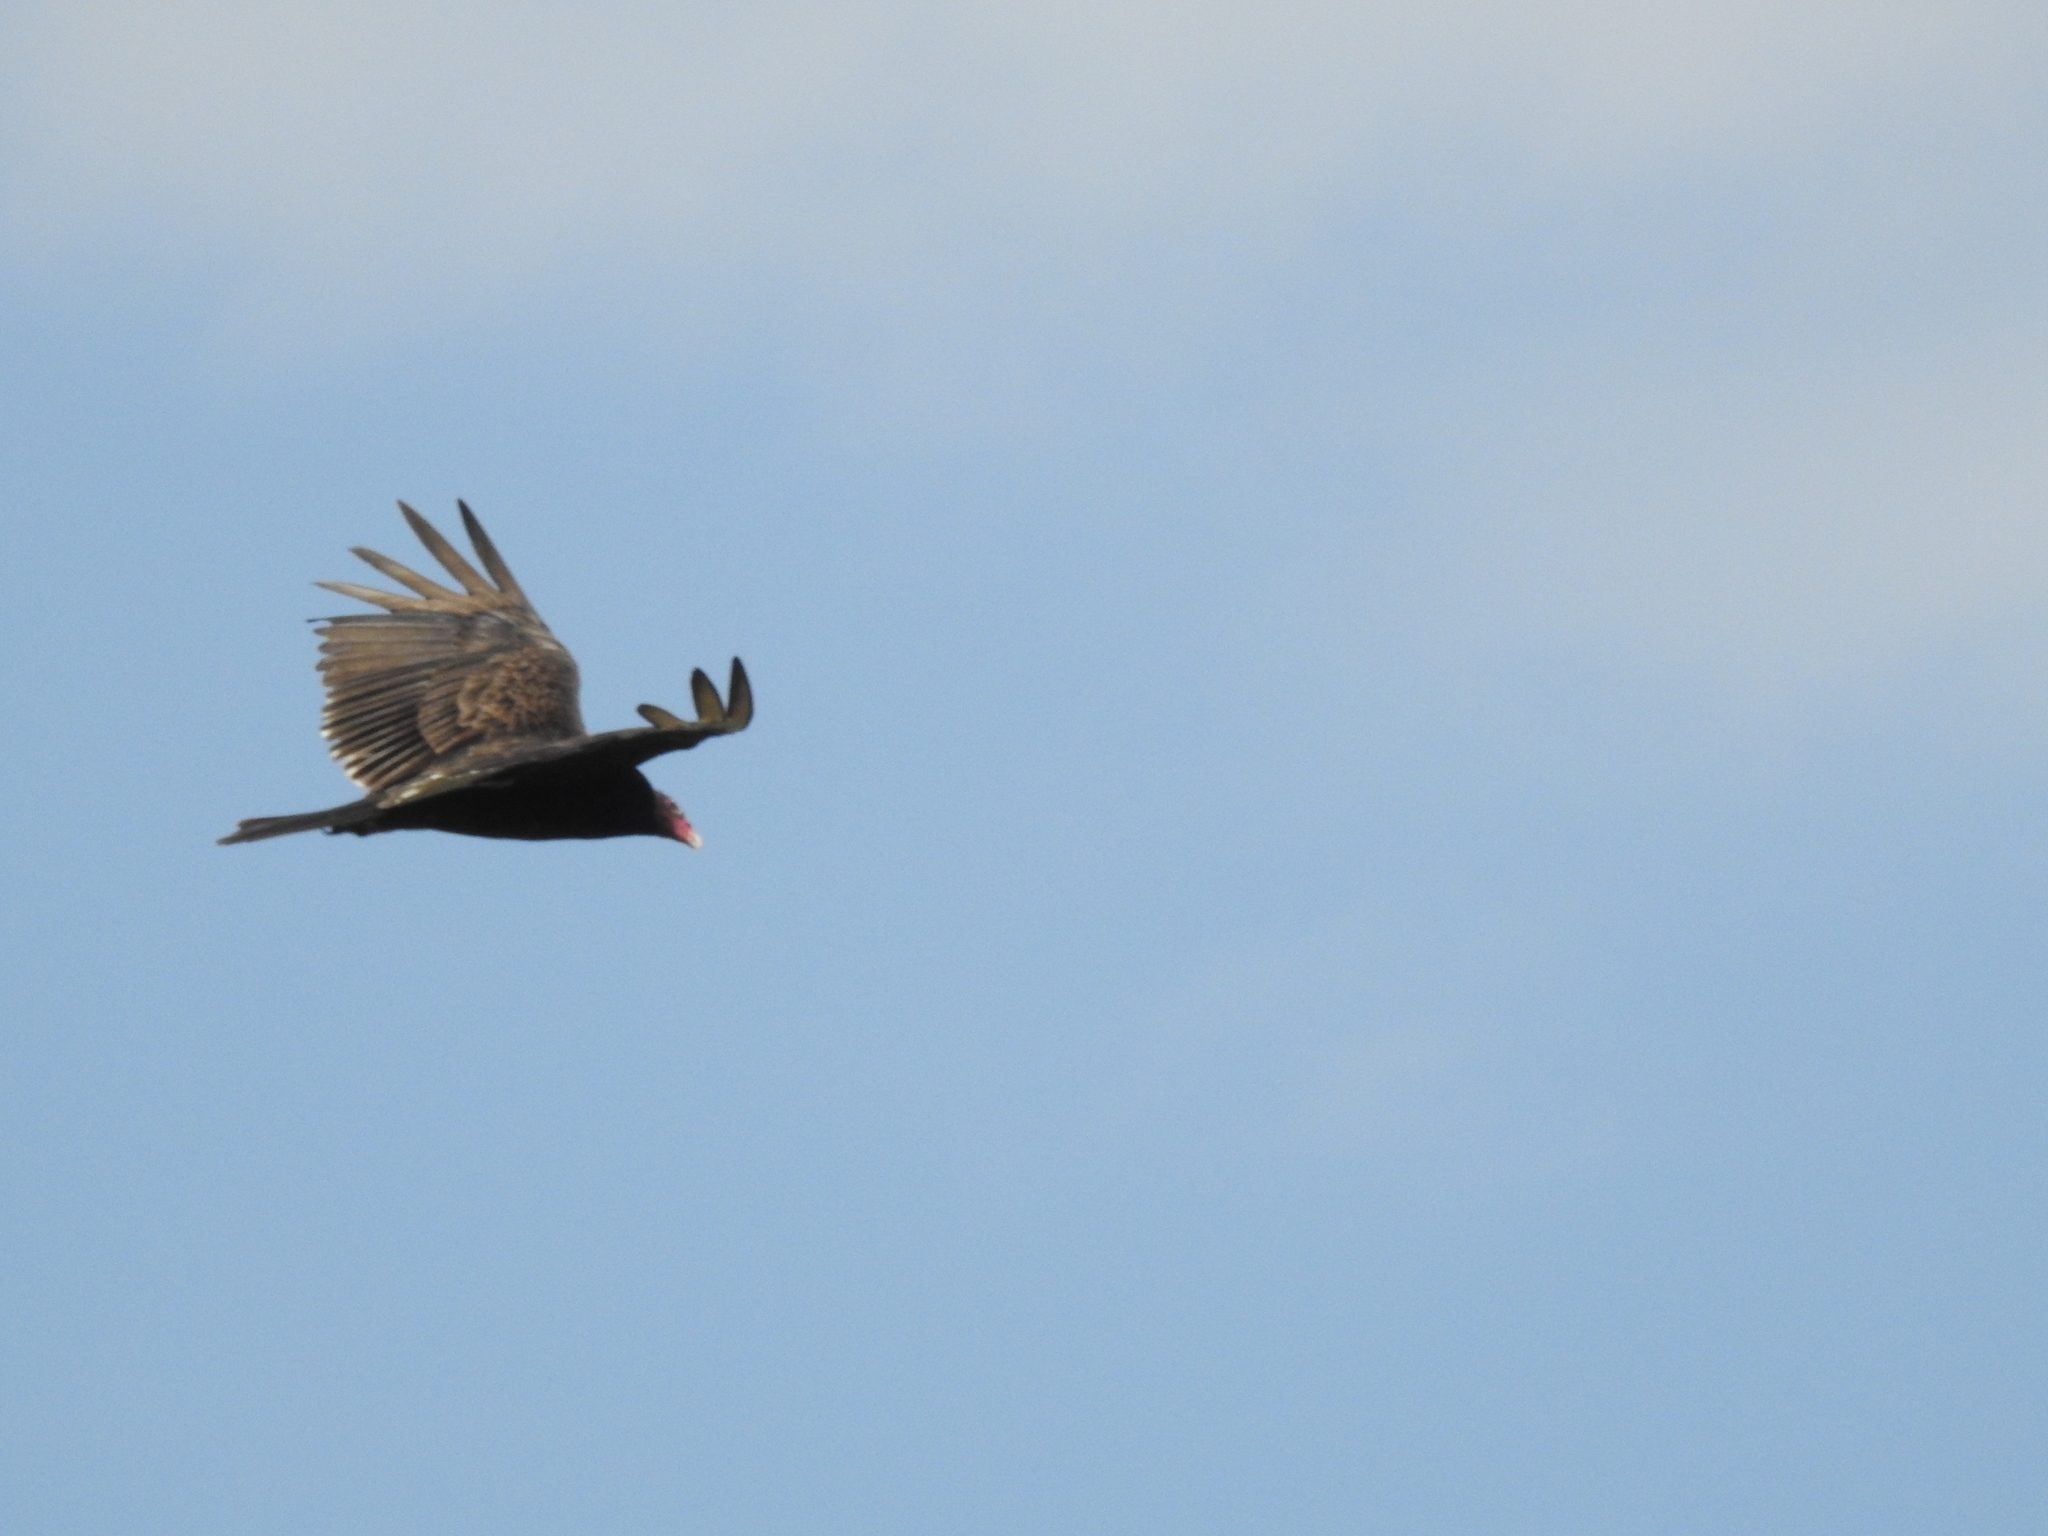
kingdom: Animalia
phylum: Chordata
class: Aves
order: Accipitriformes
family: Cathartidae
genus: Cathartes
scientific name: Cathartes aura
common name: Turkey vulture
